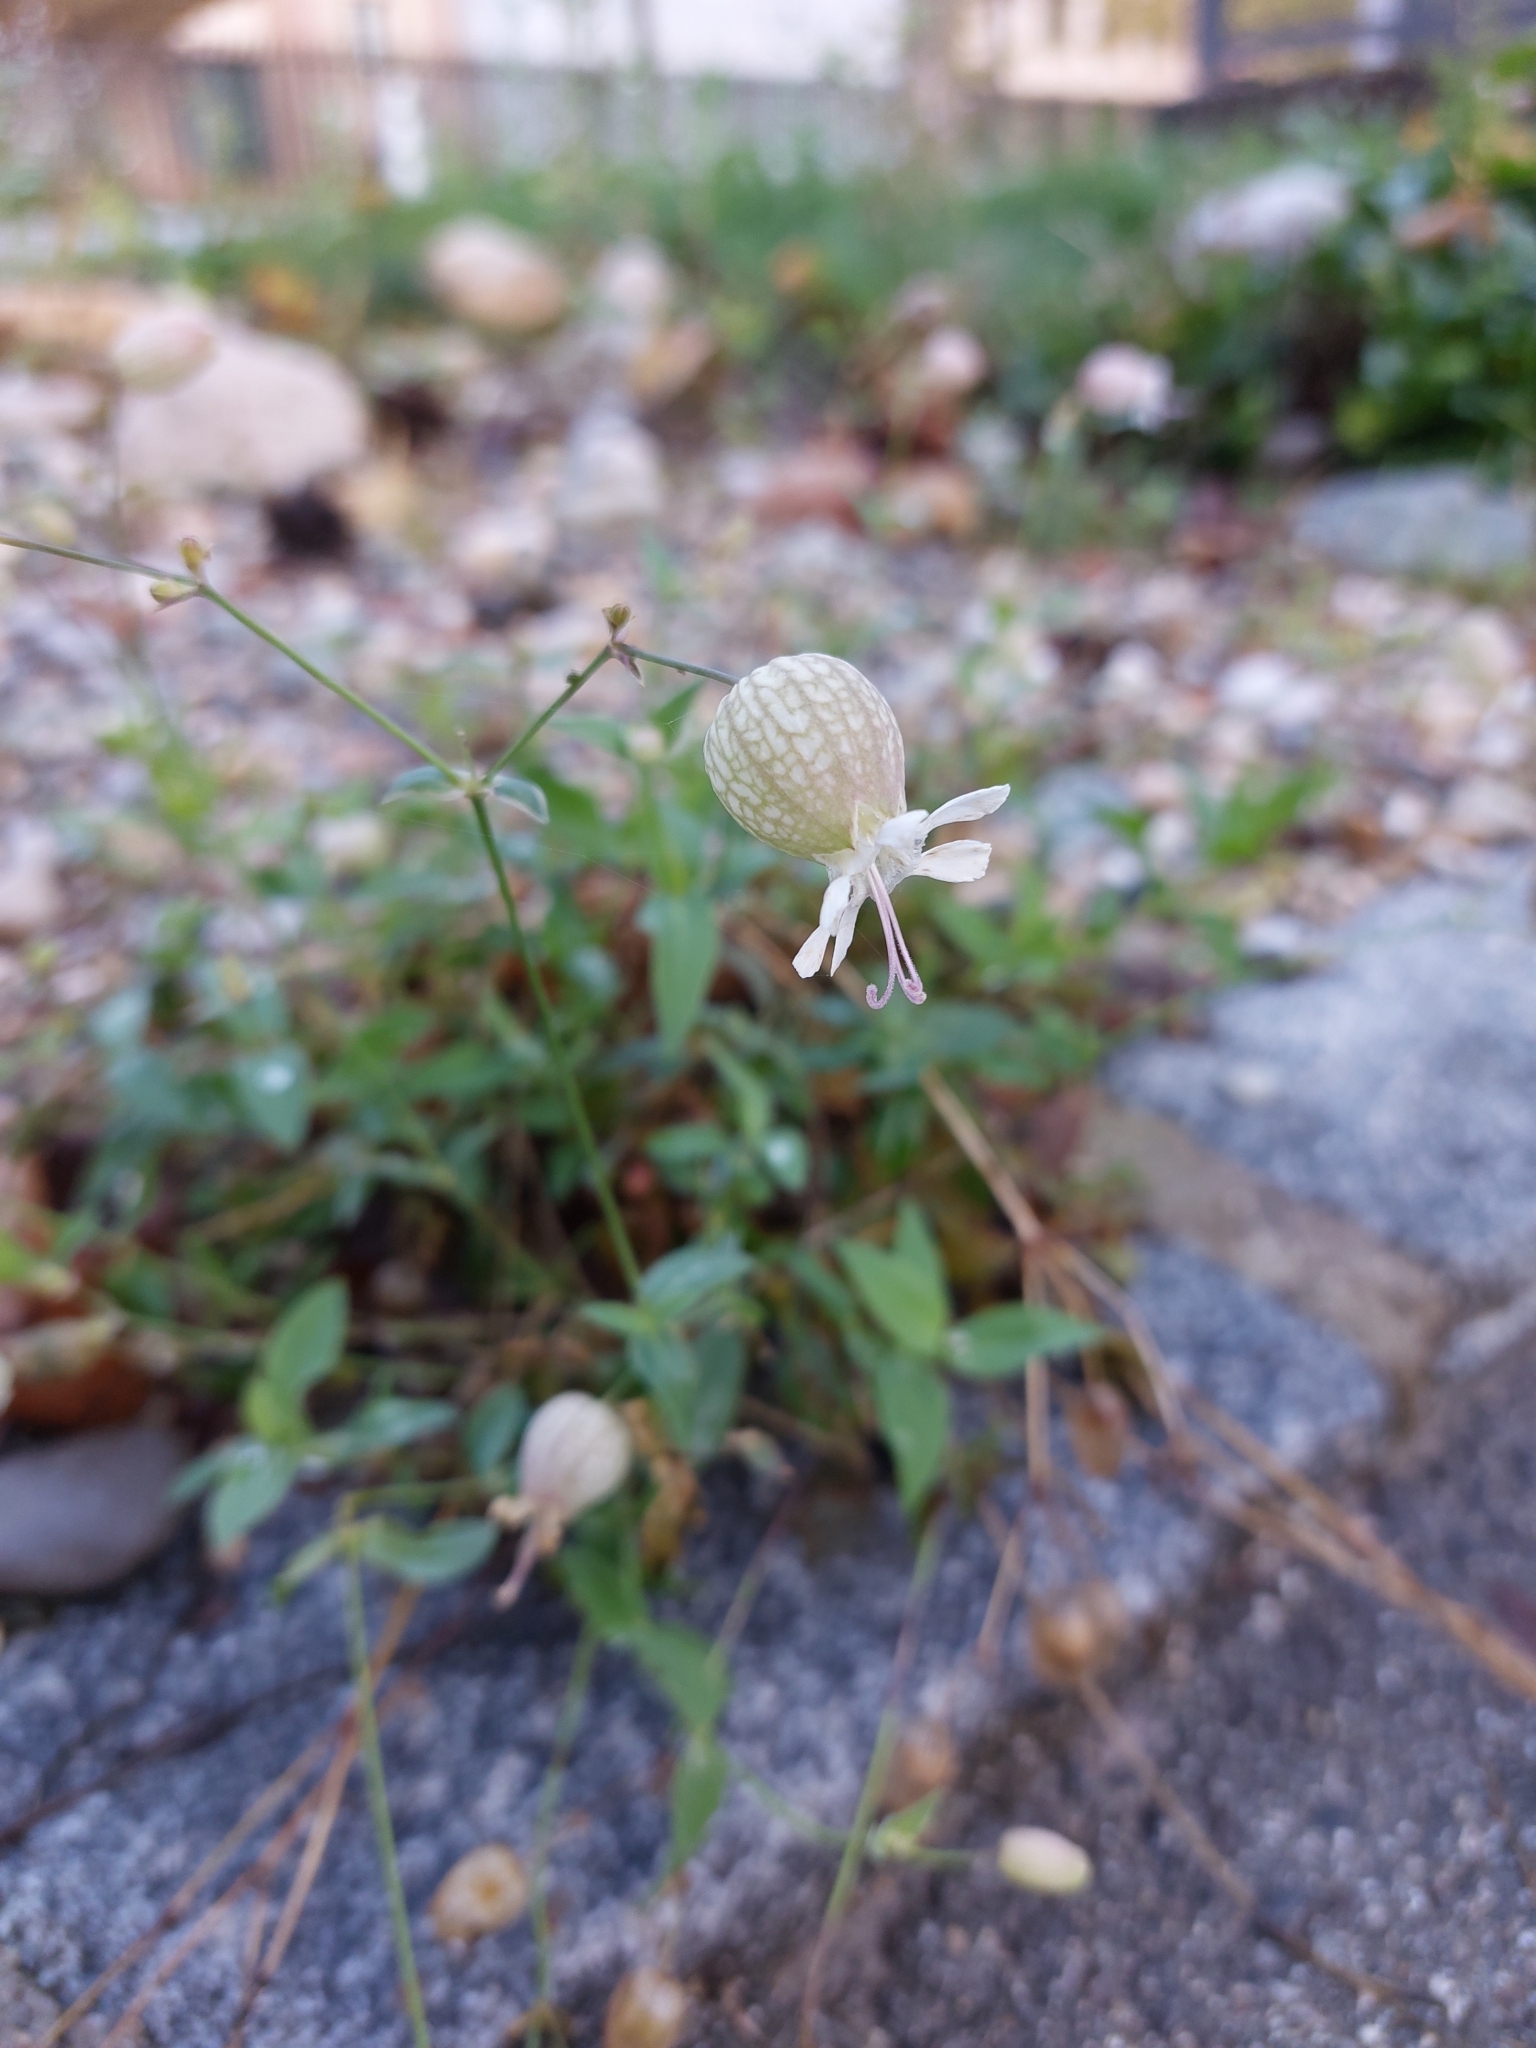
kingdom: Plantae
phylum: Tracheophyta
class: Magnoliopsida
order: Caryophyllales
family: Caryophyllaceae
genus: Silene
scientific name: Silene vulgaris
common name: Bladder campion
